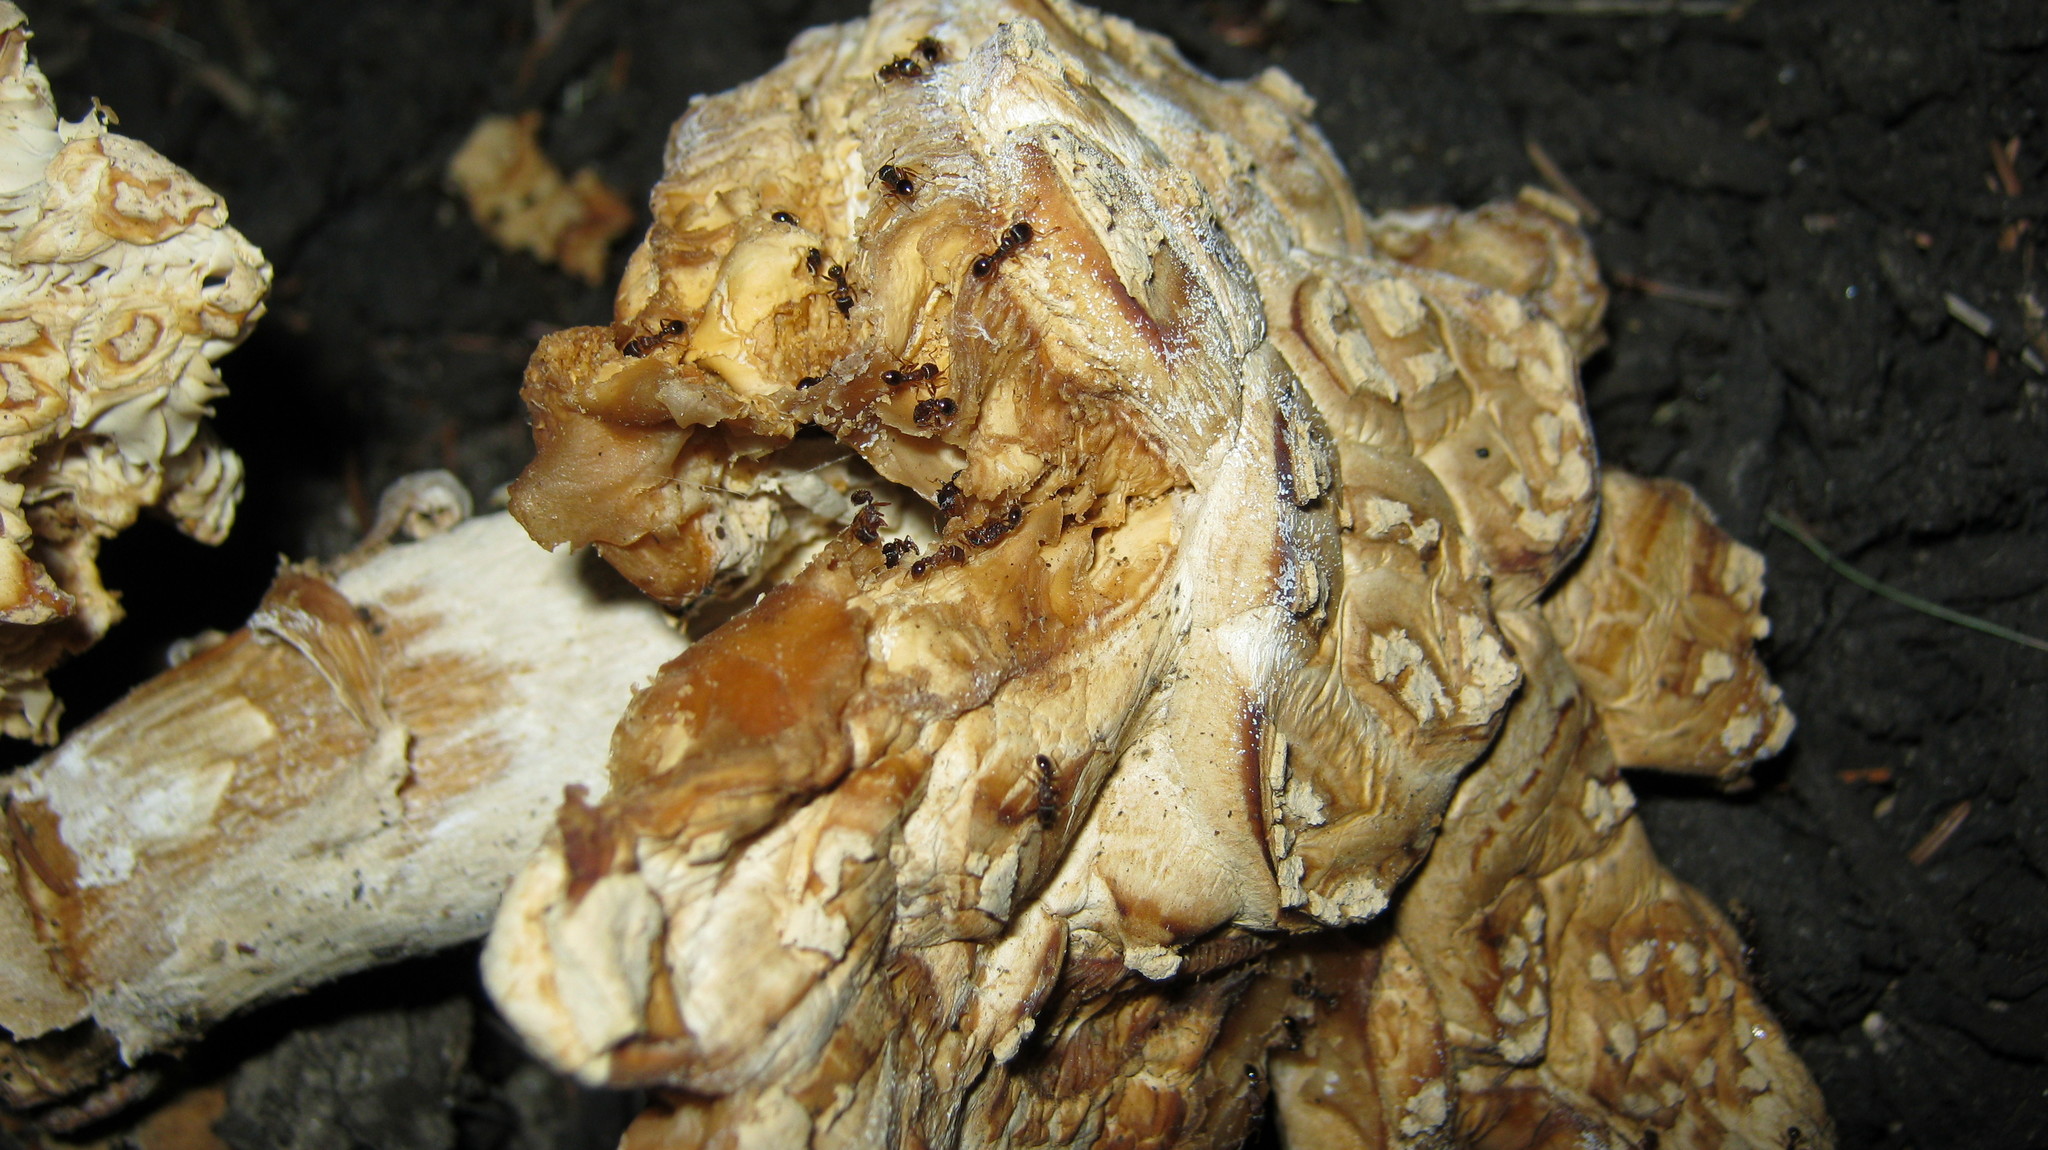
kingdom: Fungi
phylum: Basidiomycota
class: Agaricomycetes
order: Agaricales
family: Amanitaceae
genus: Amanita
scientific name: Amanita muscaria
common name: Fly agaric
